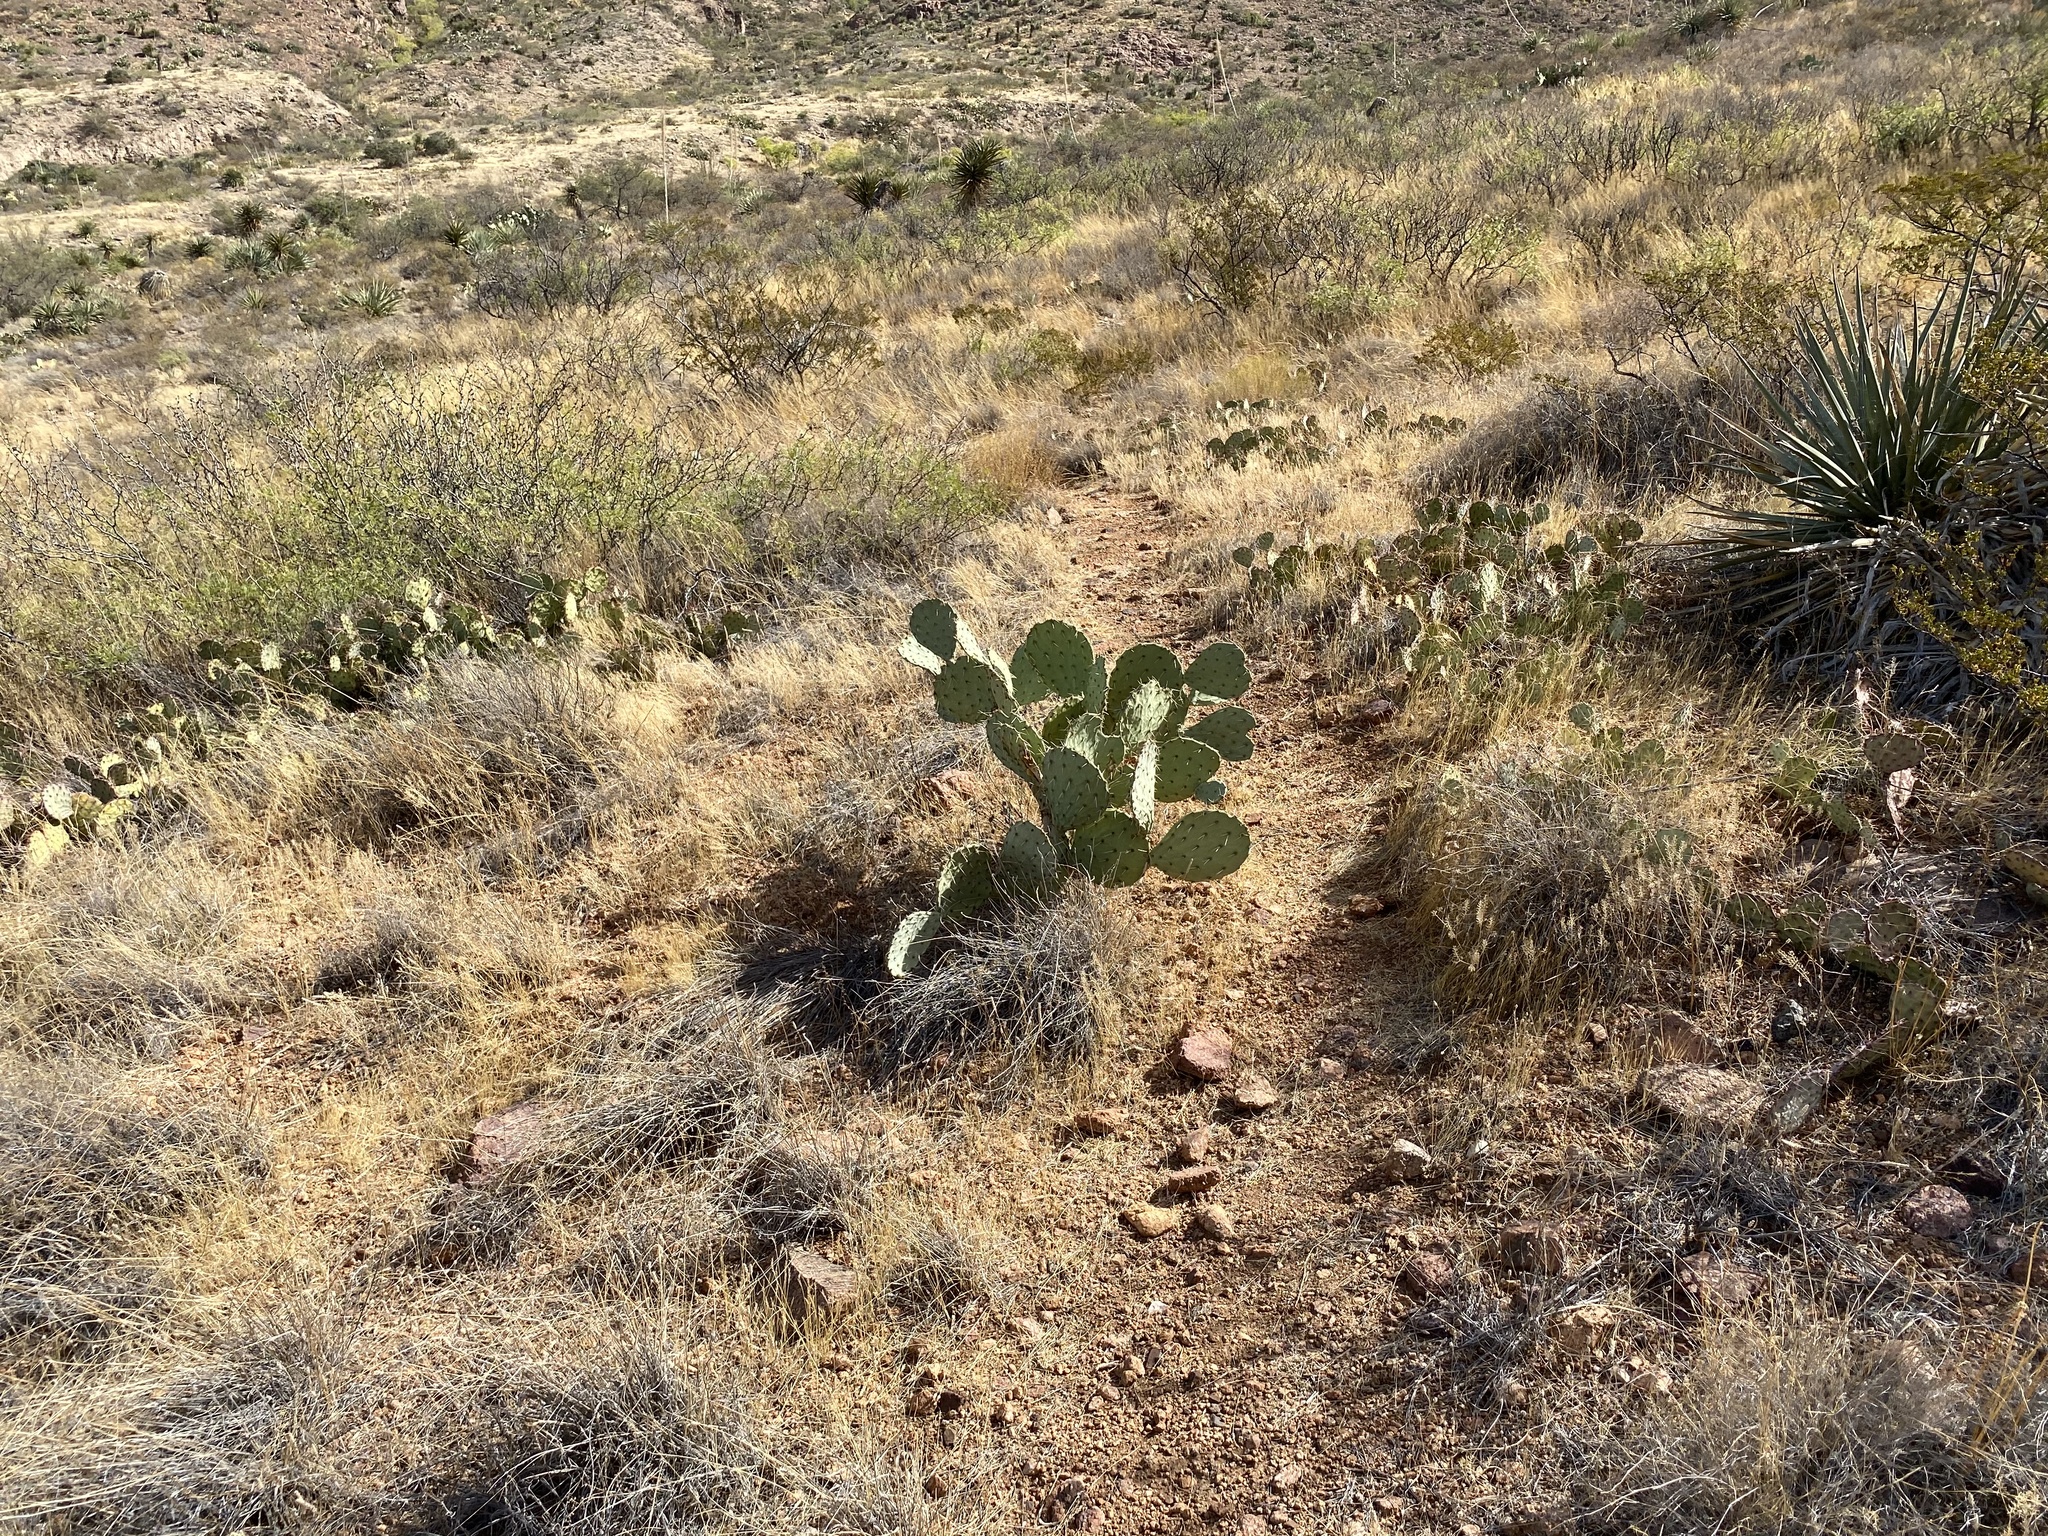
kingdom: Plantae
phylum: Tracheophyta
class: Magnoliopsida
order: Caryophyllales
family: Cactaceae
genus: Opuntia
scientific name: Opuntia engelmannii
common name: Cactus-apple
